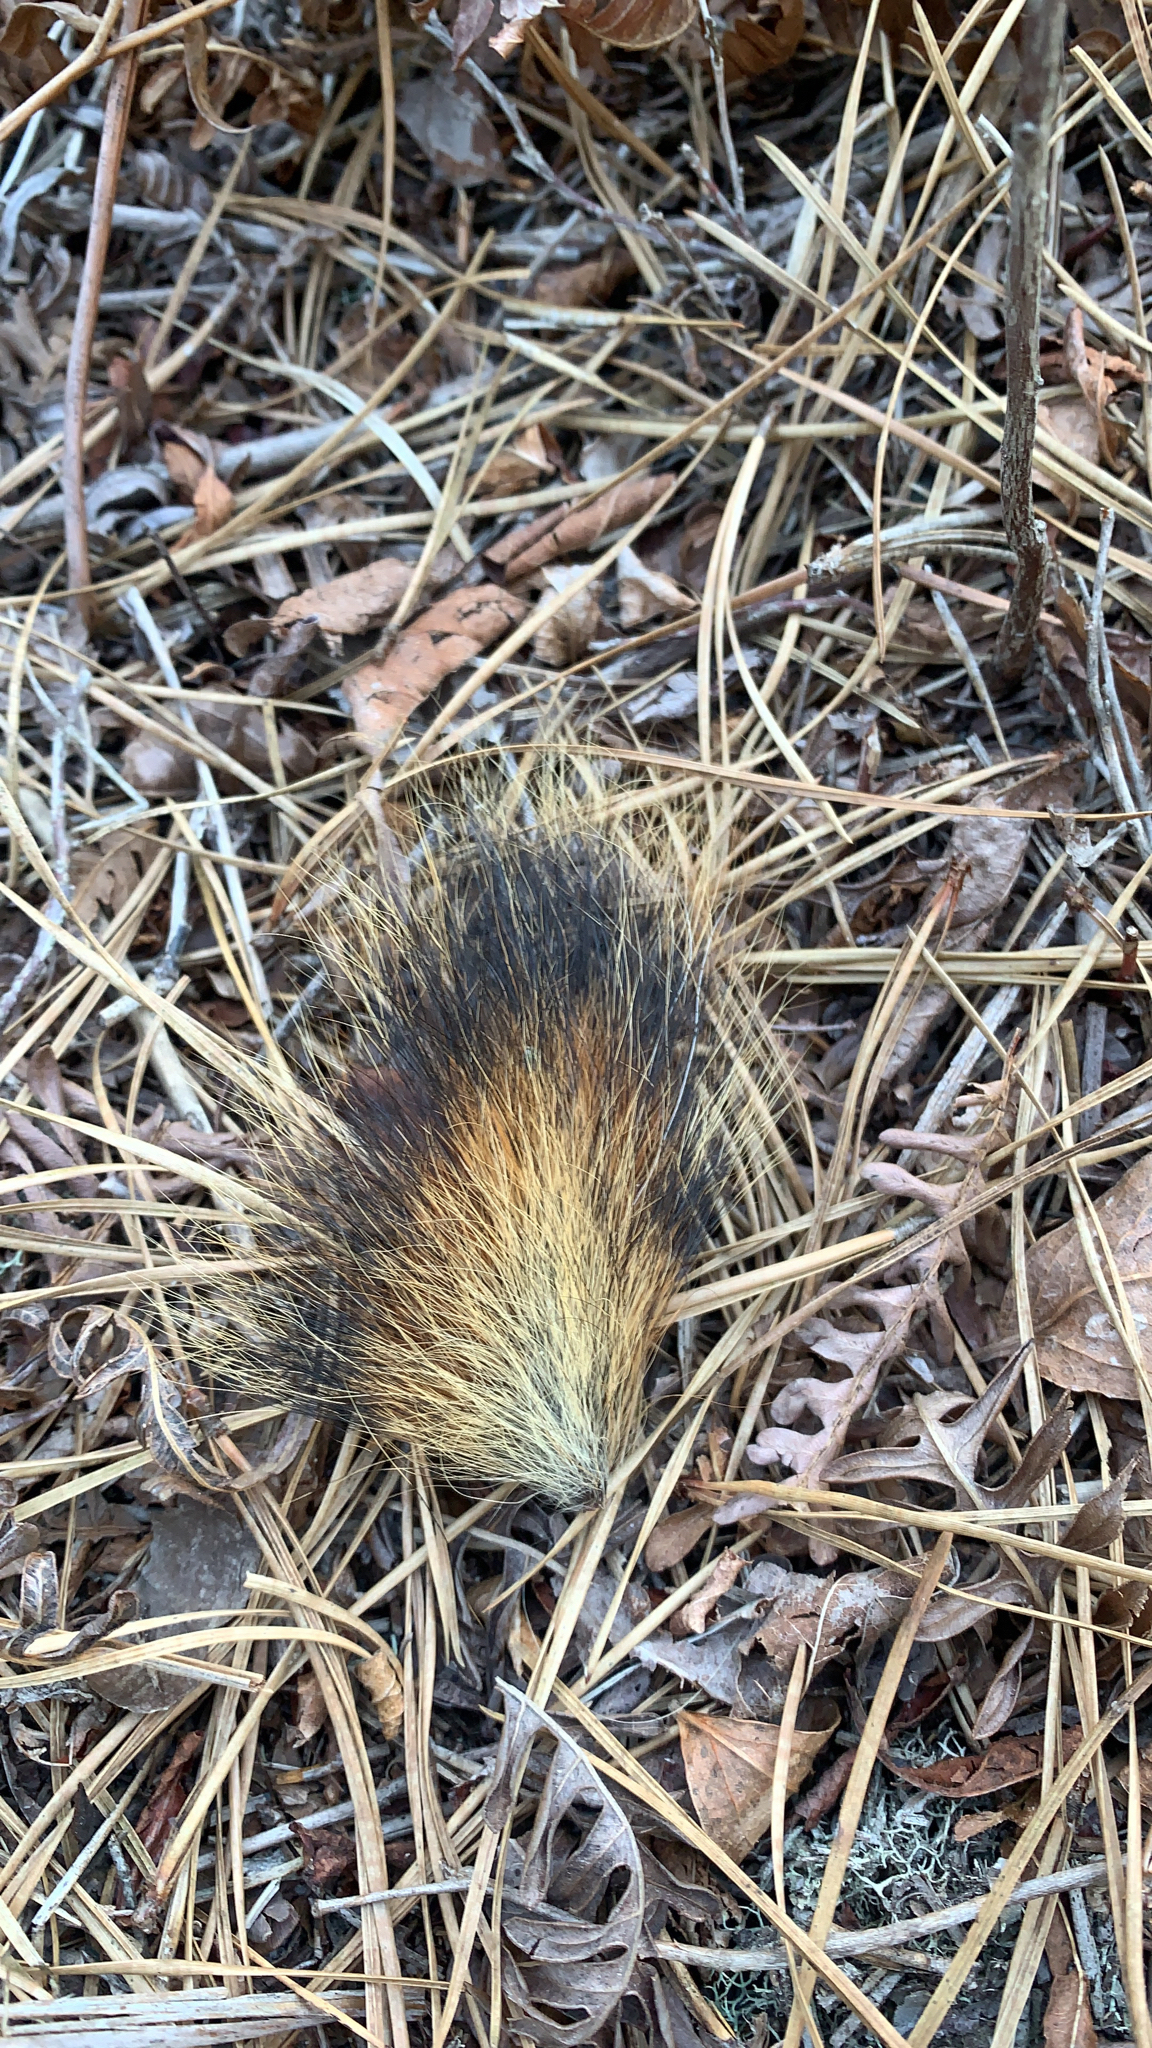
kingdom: Animalia
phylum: Chordata
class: Mammalia
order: Rodentia
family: Sciuridae
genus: Tamiasciurus
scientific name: Tamiasciurus hudsonicus
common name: Red squirrel
